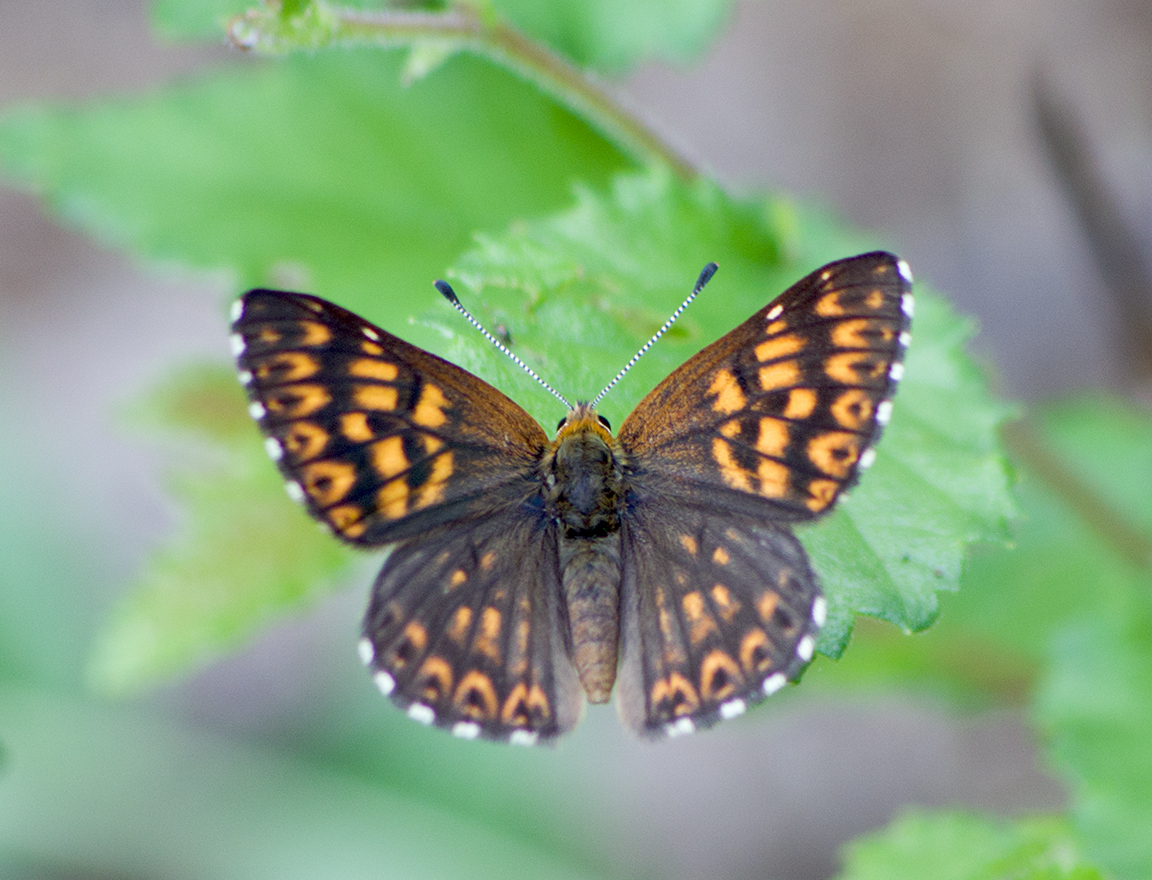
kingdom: Animalia
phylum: Arthropoda
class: Insecta
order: Lepidoptera
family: Riodinidae
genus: Hamearis
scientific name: Hamearis lucina
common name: Duke of burgundy fritillary
